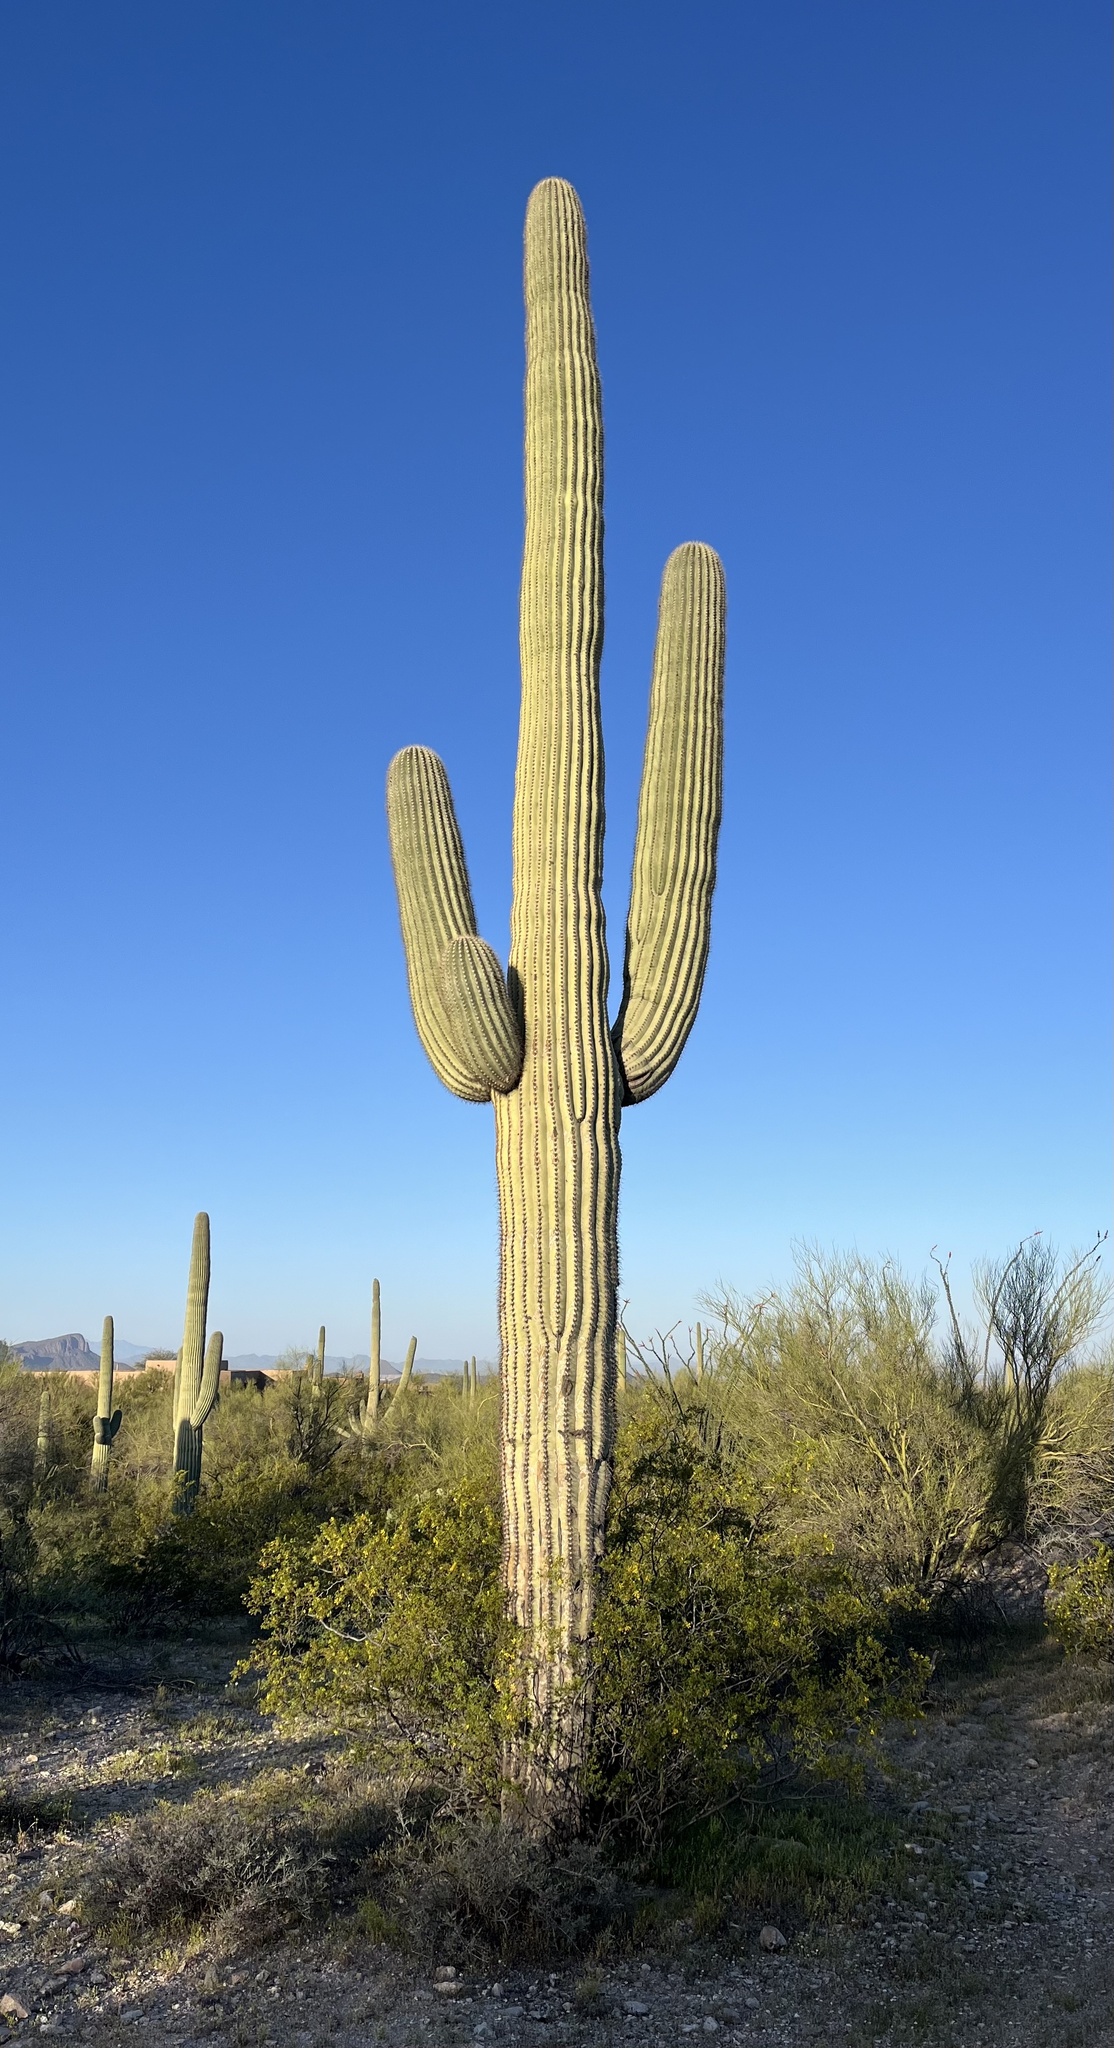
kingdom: Plantae
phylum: Tracheophyta
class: Magnoliopsida
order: Caryophyllales
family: Cactaceae
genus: Carnegiea
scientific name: Carnegiea gigantea
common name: Saguaro
